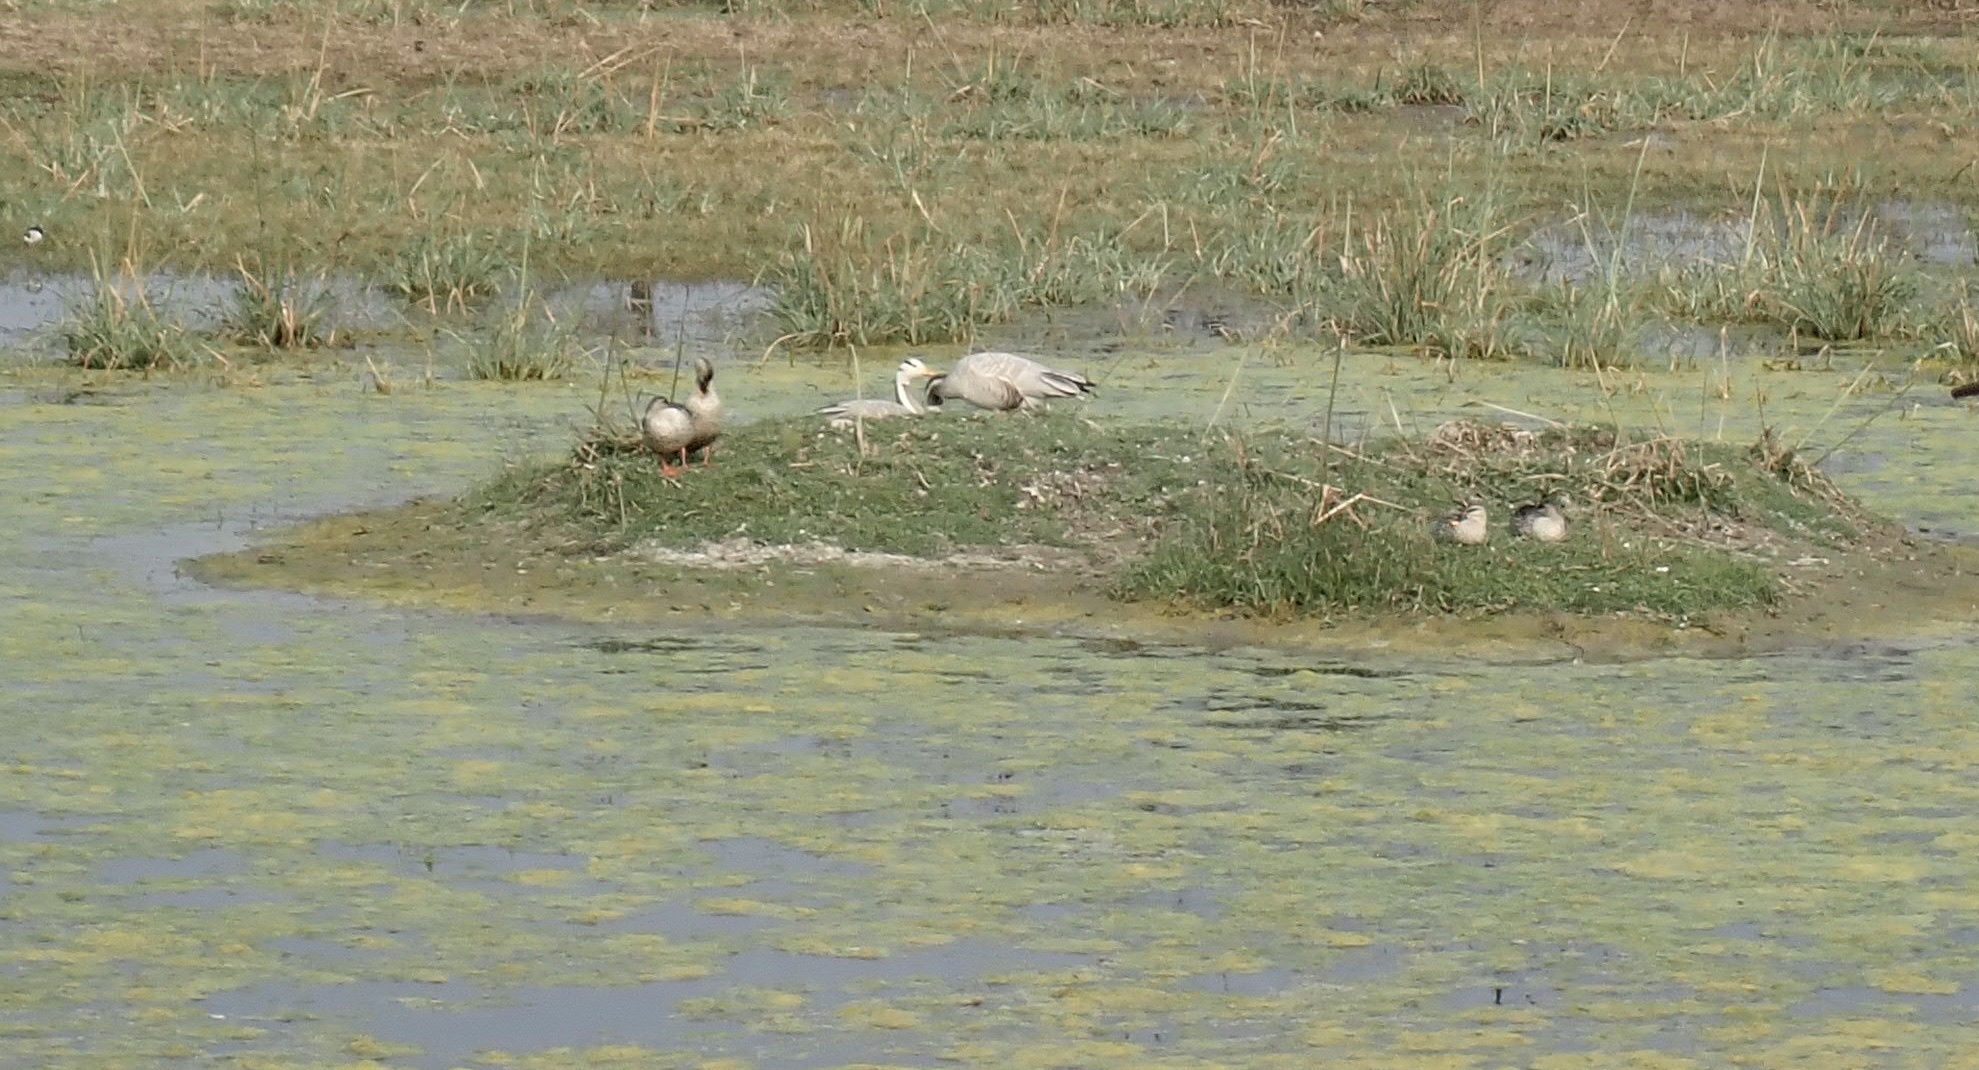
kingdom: Animalia
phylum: Chordata
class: Aves
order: Anseriformes
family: Anatidae
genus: Anser
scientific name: Anser indicus
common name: Bar-headed goose
